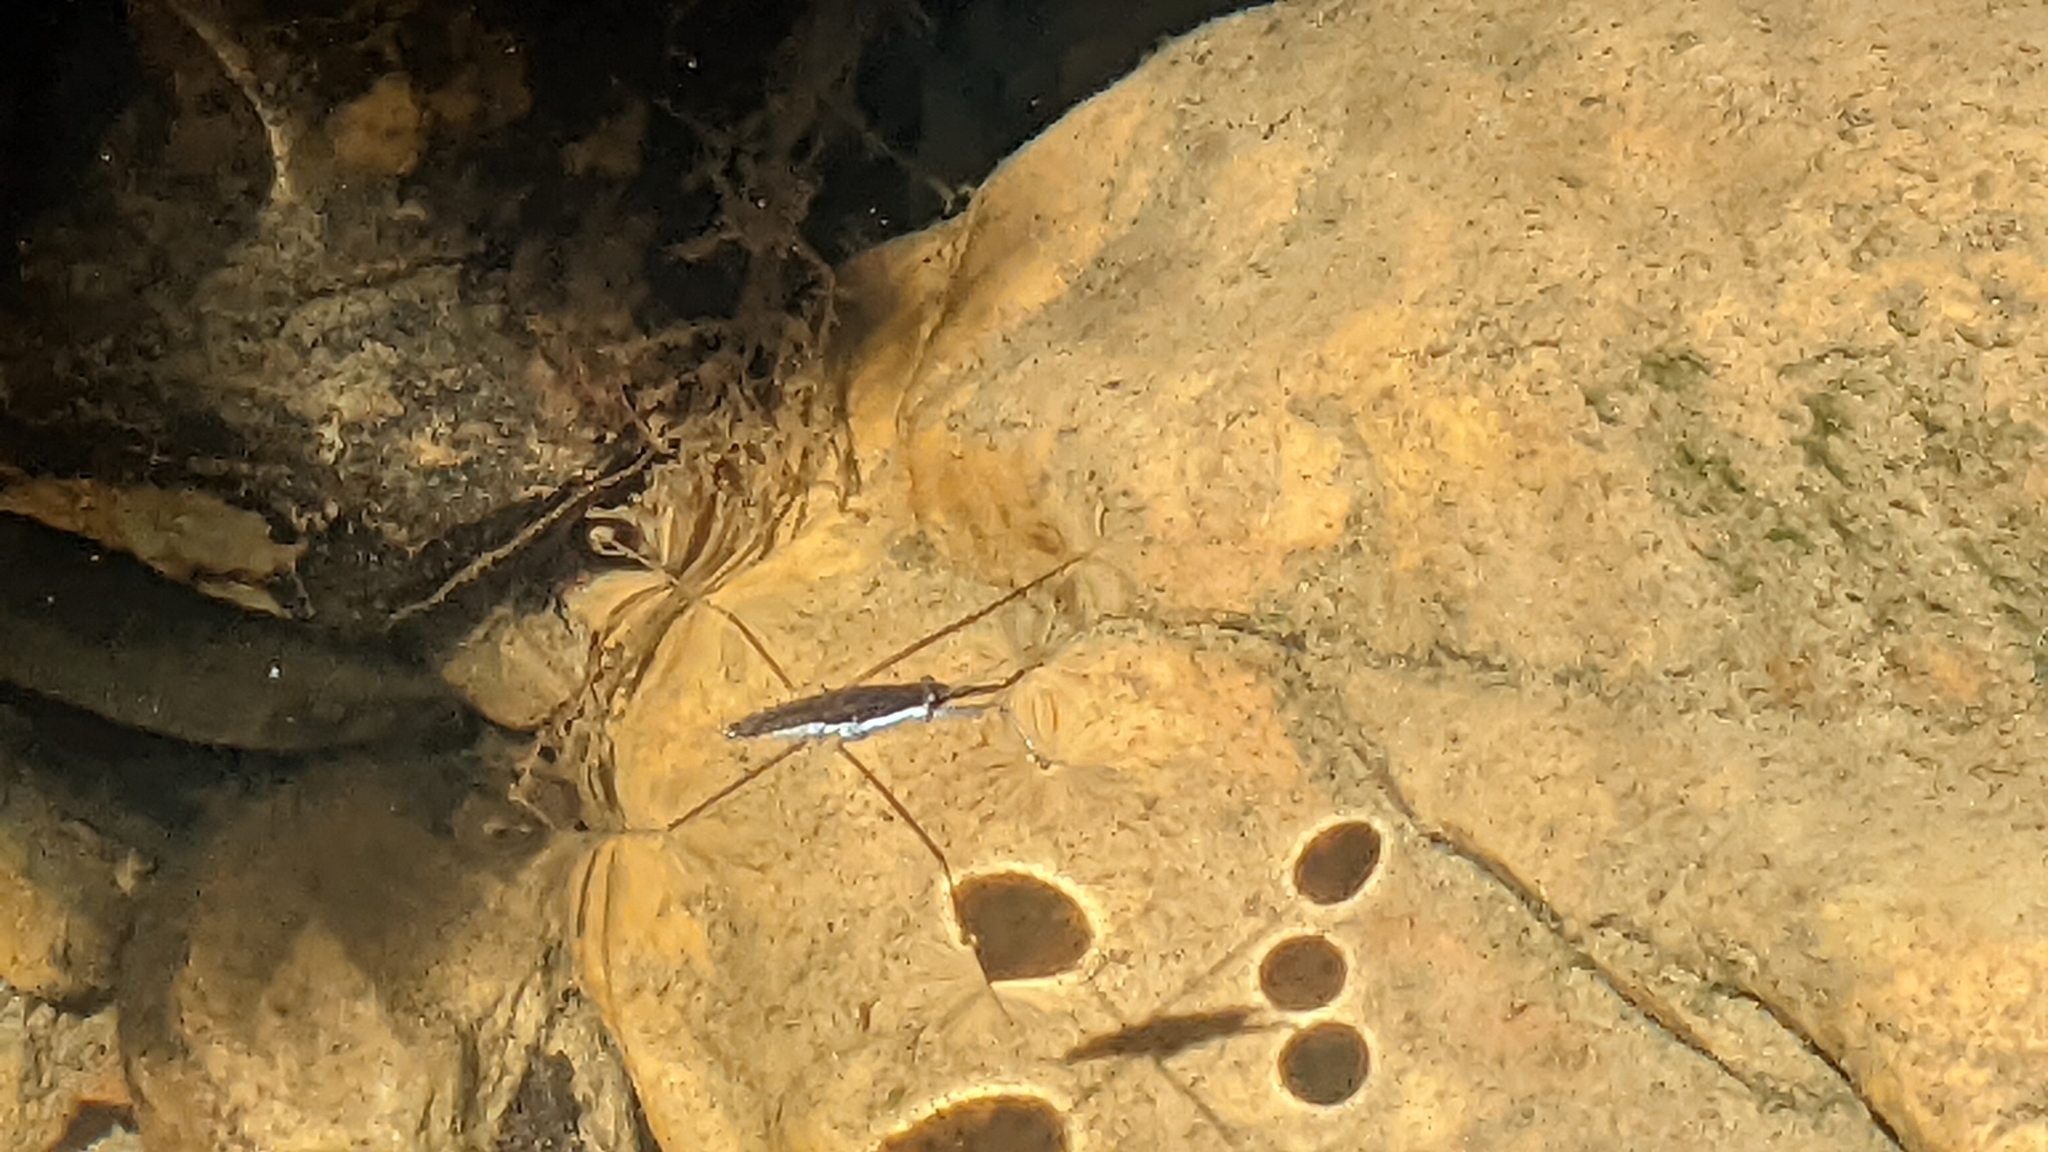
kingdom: Animalia
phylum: Arthropoda
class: Insecta
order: Hemiptera
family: Gerridae
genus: Aquarius
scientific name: Aquarius remigis
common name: Common water strider
